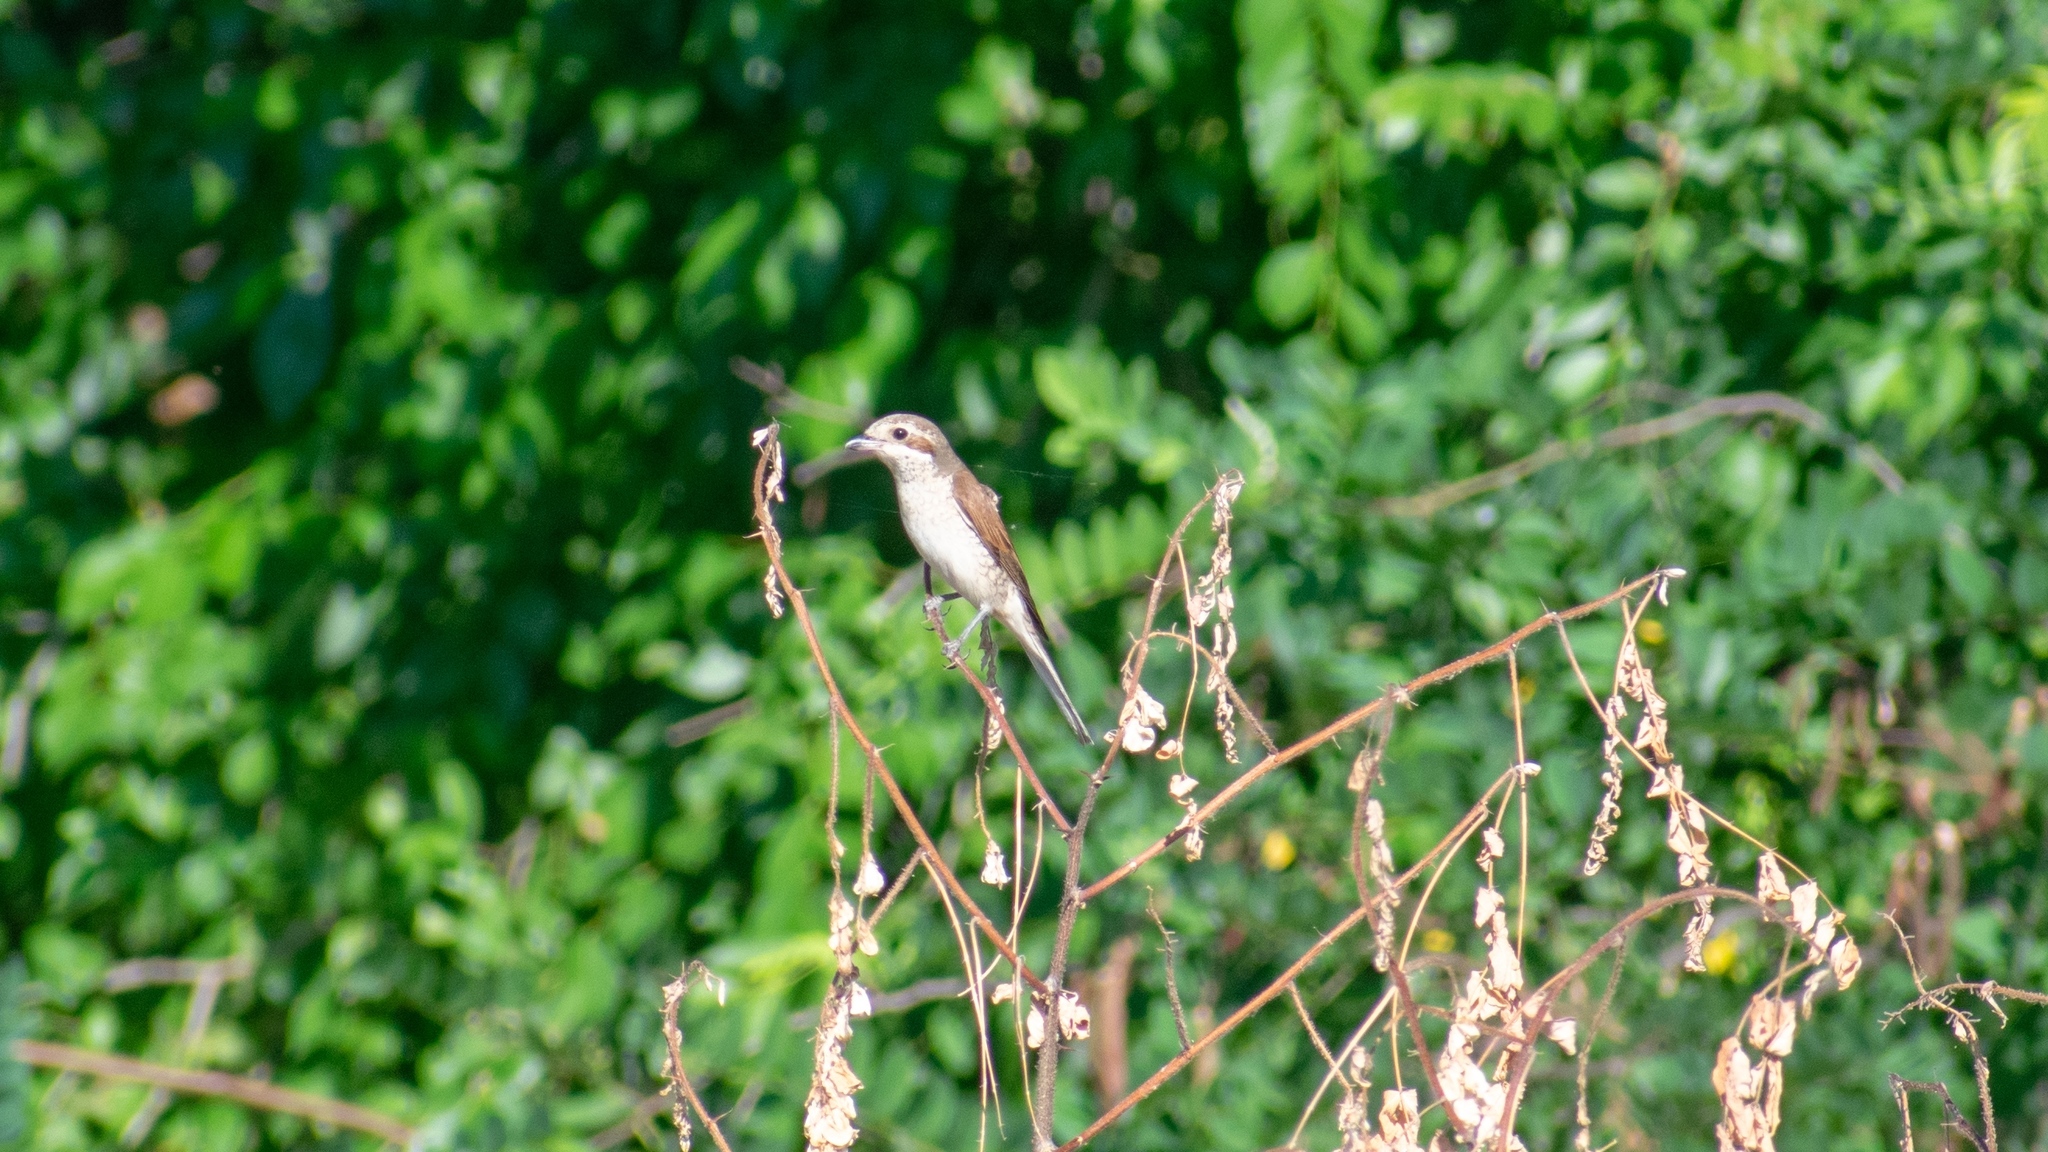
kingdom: Animalia
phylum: Chordata
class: Aves
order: Passeriformes
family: Laniidae
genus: Lanius
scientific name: Lanius collurio
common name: Red-backed shrike
